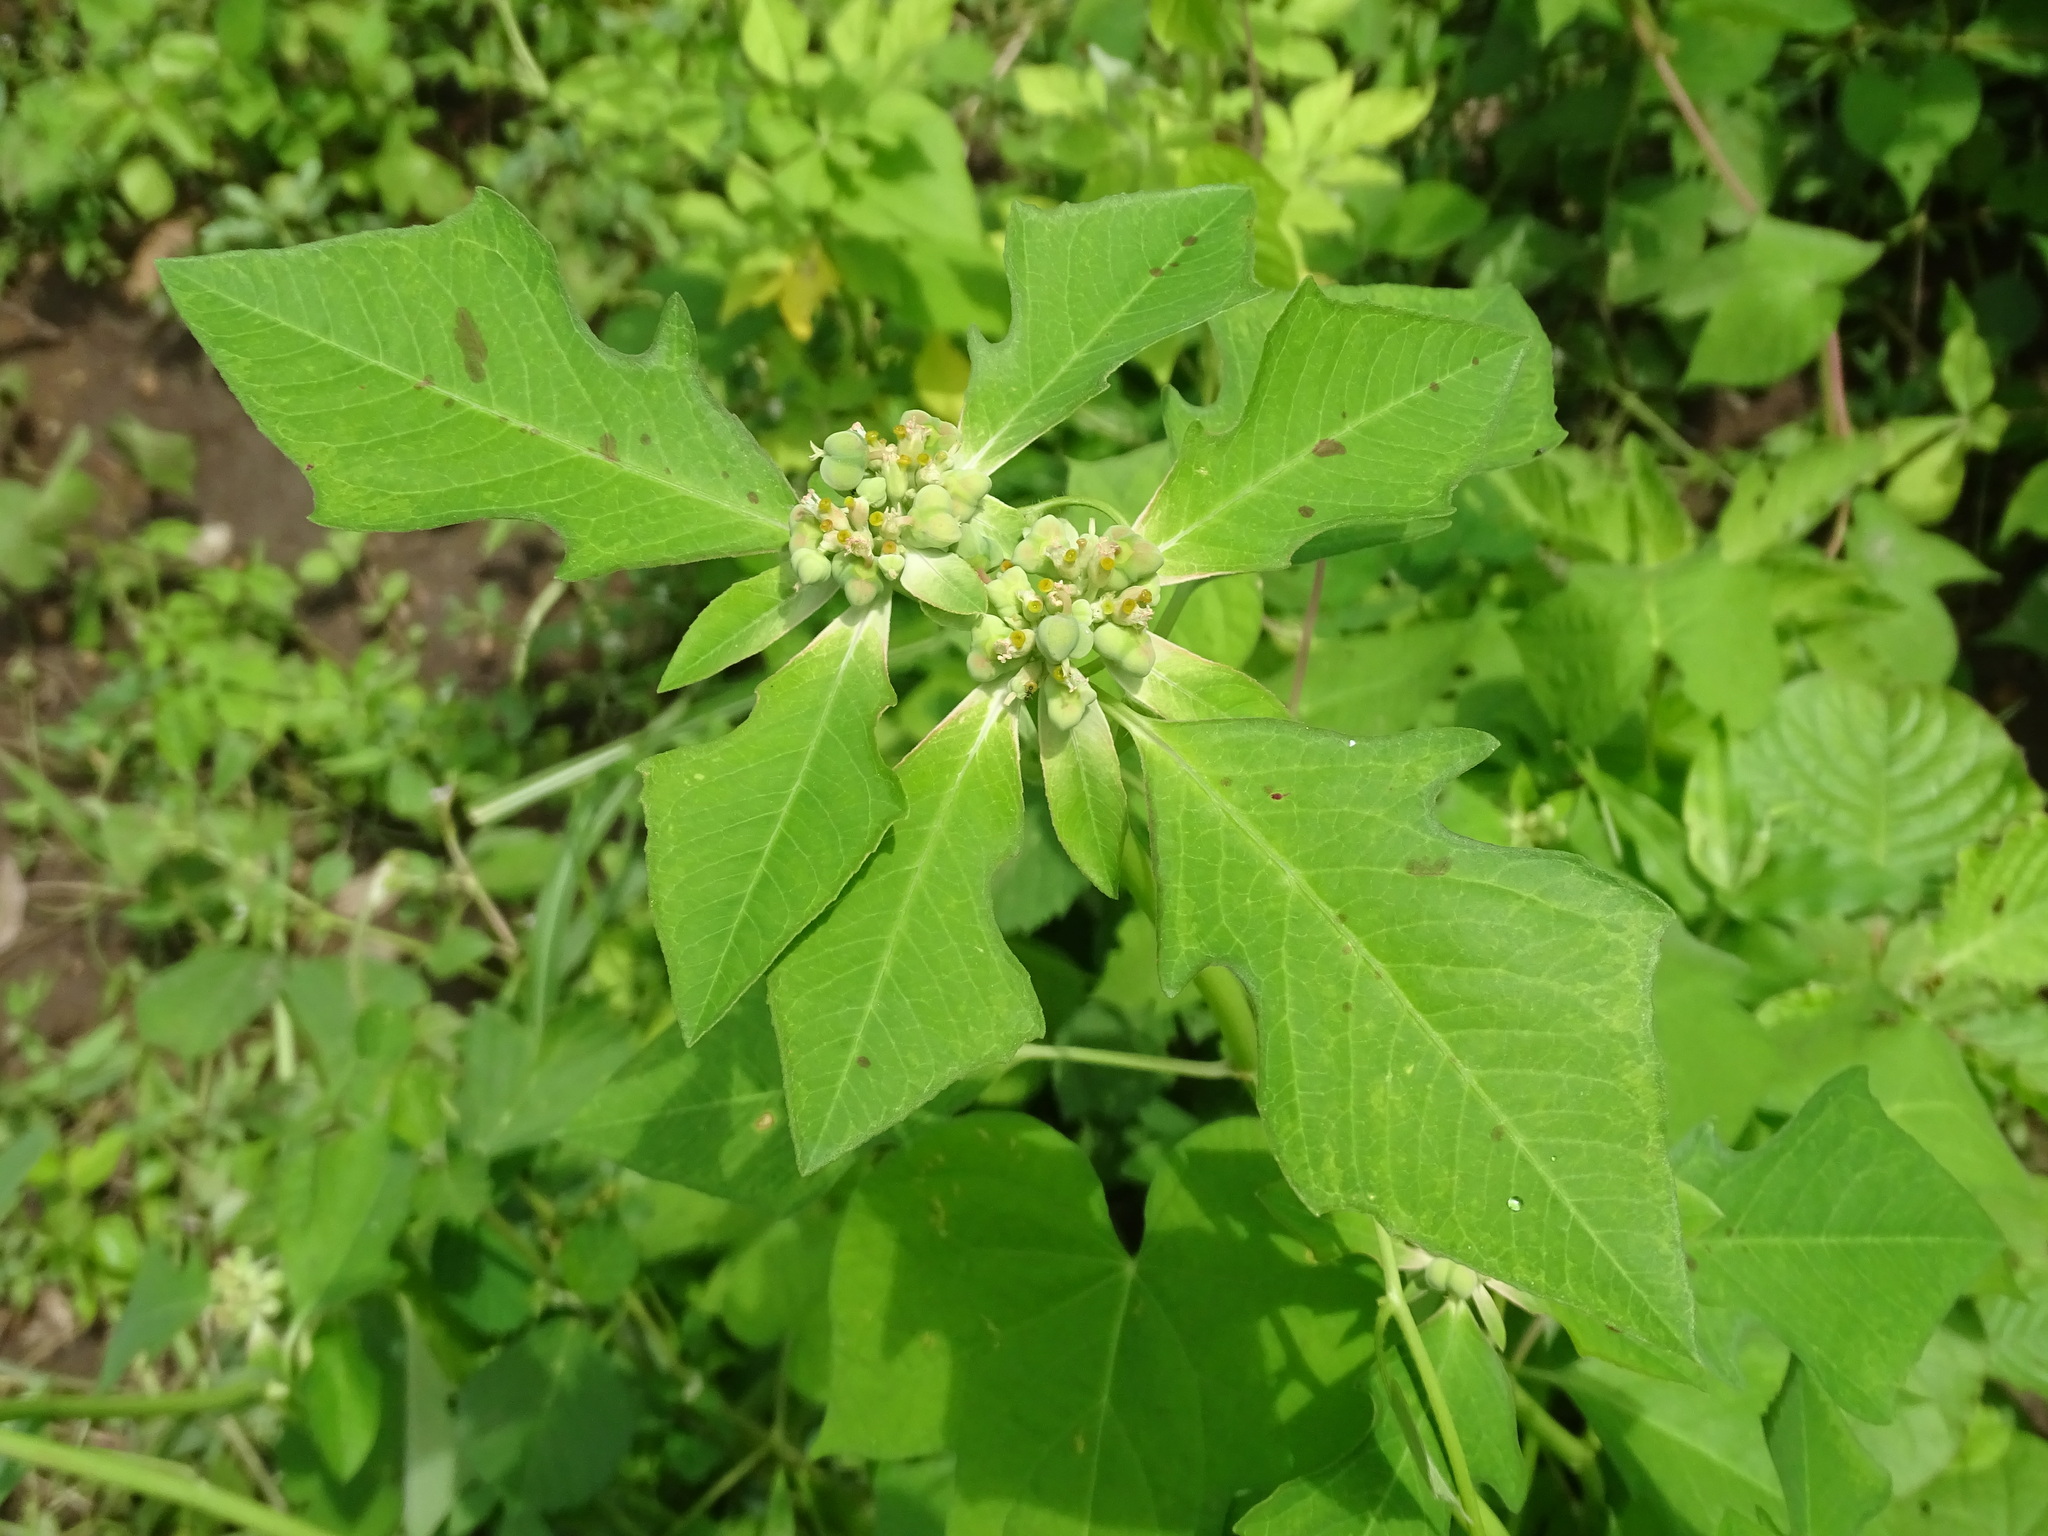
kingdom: Plantae
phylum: Tracheophyta
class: Magnoliopsida
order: Malpighiales
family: Euphorbiaceae
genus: Euphorbia
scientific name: Euphorbia heterophylla
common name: Mexican fireplant
